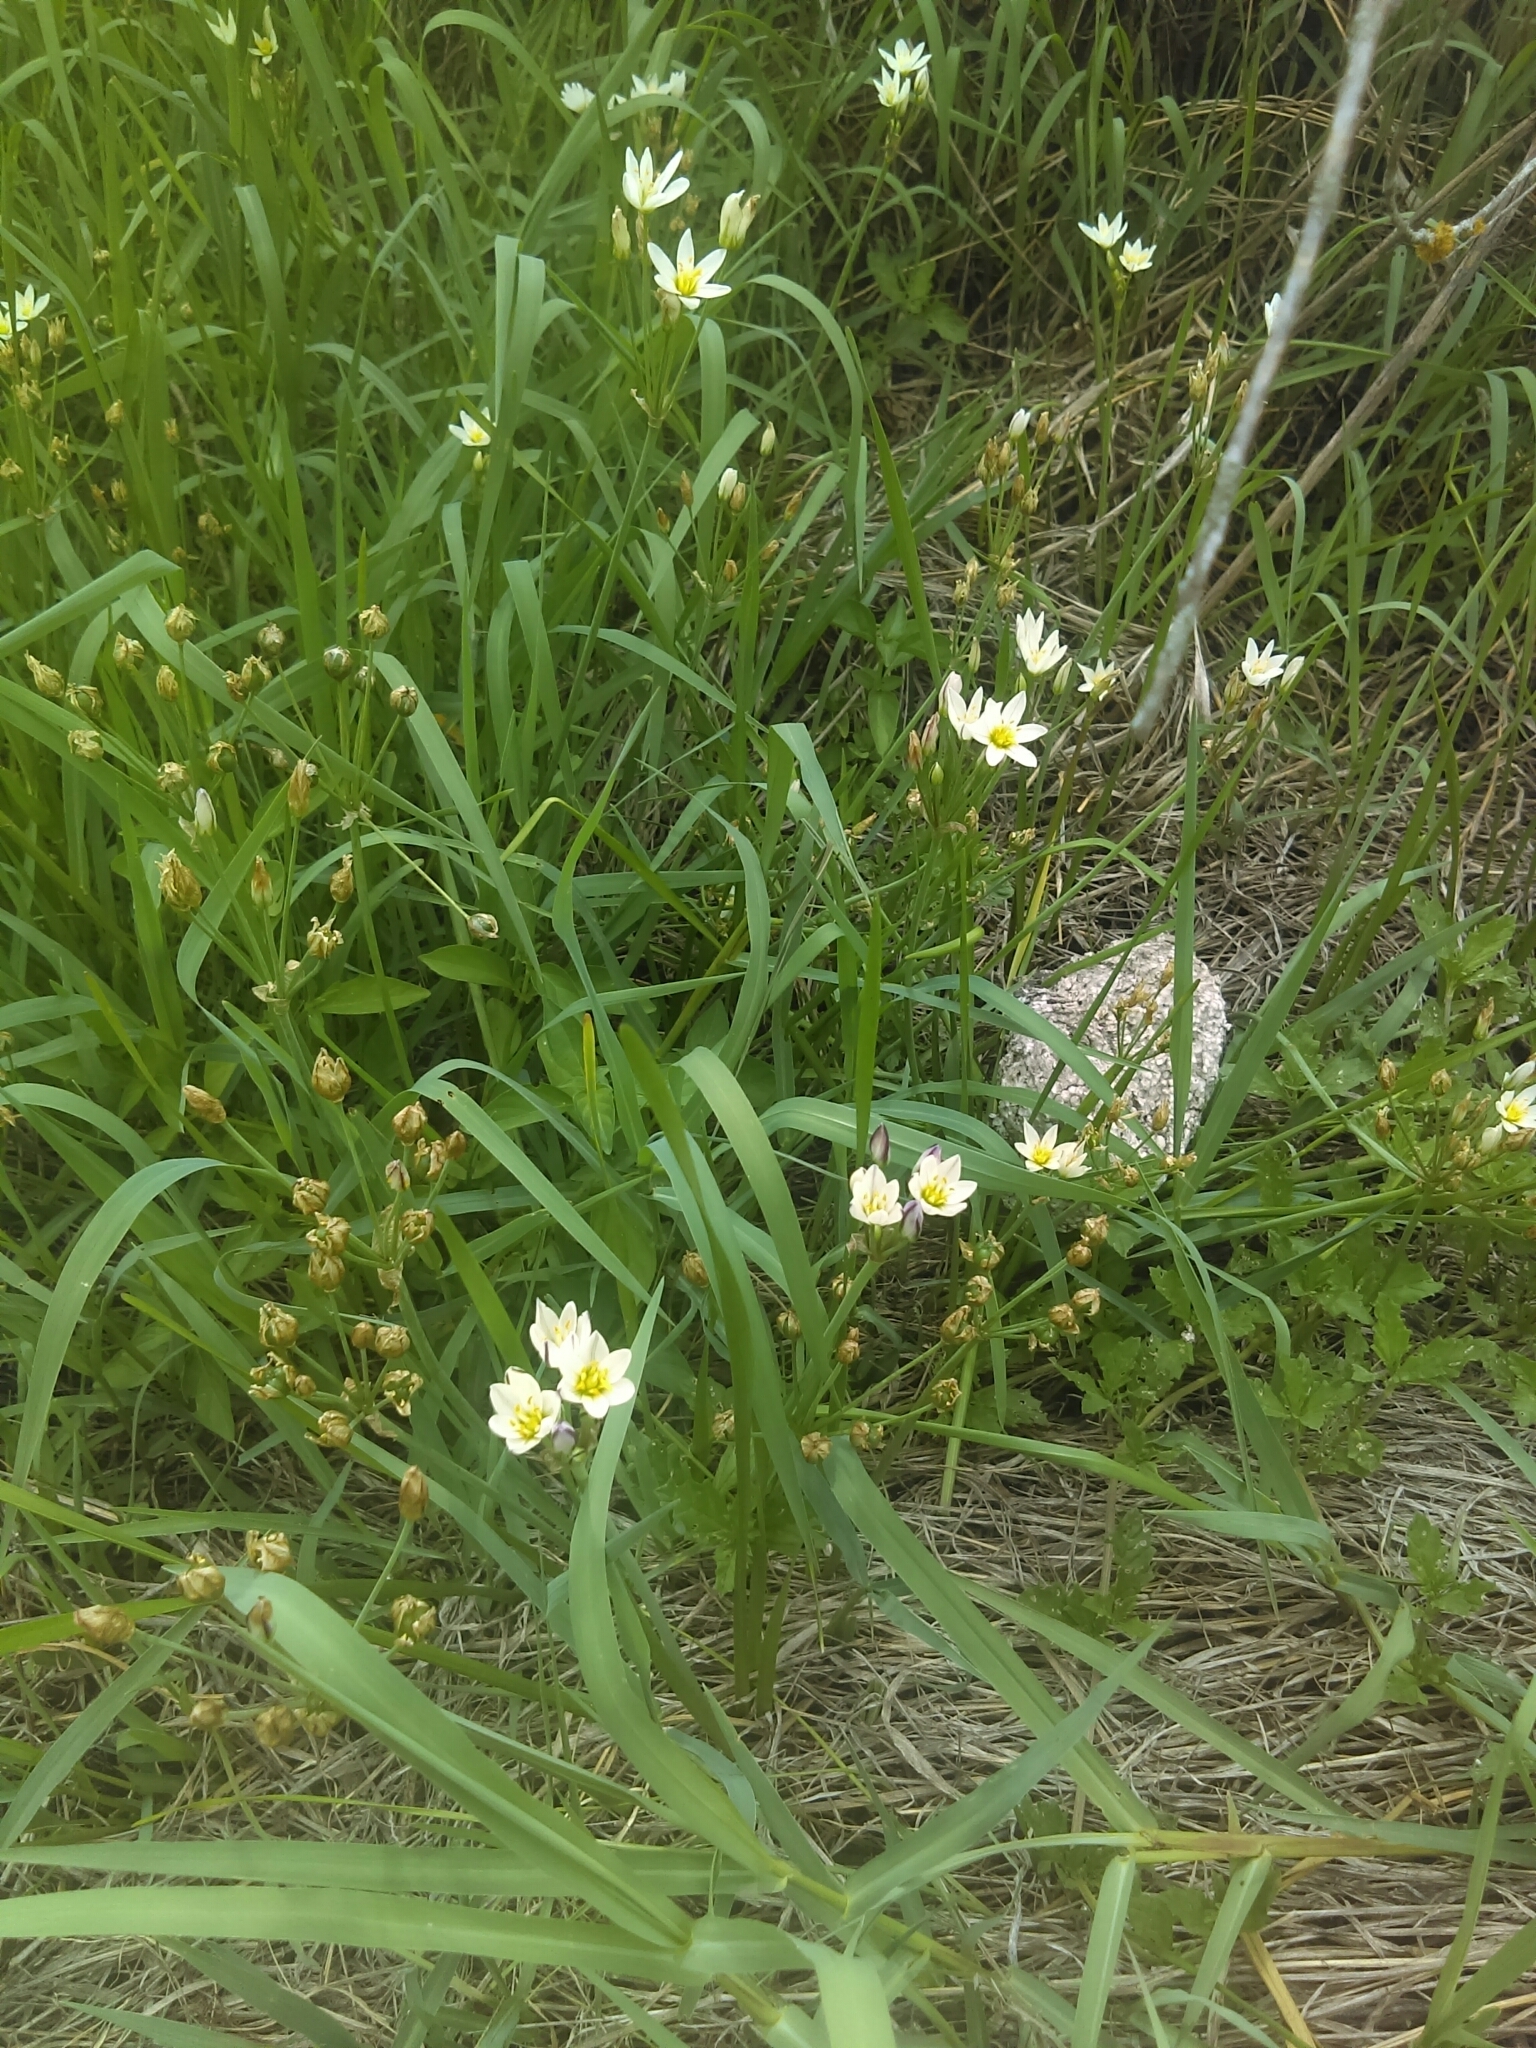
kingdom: Plantae
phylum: Tracheophyta
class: Liliopsida
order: Asparagales
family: Amaryllidaceae
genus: Nothoscordum
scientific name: Nothoscordum bivalve
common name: Crow-poison
